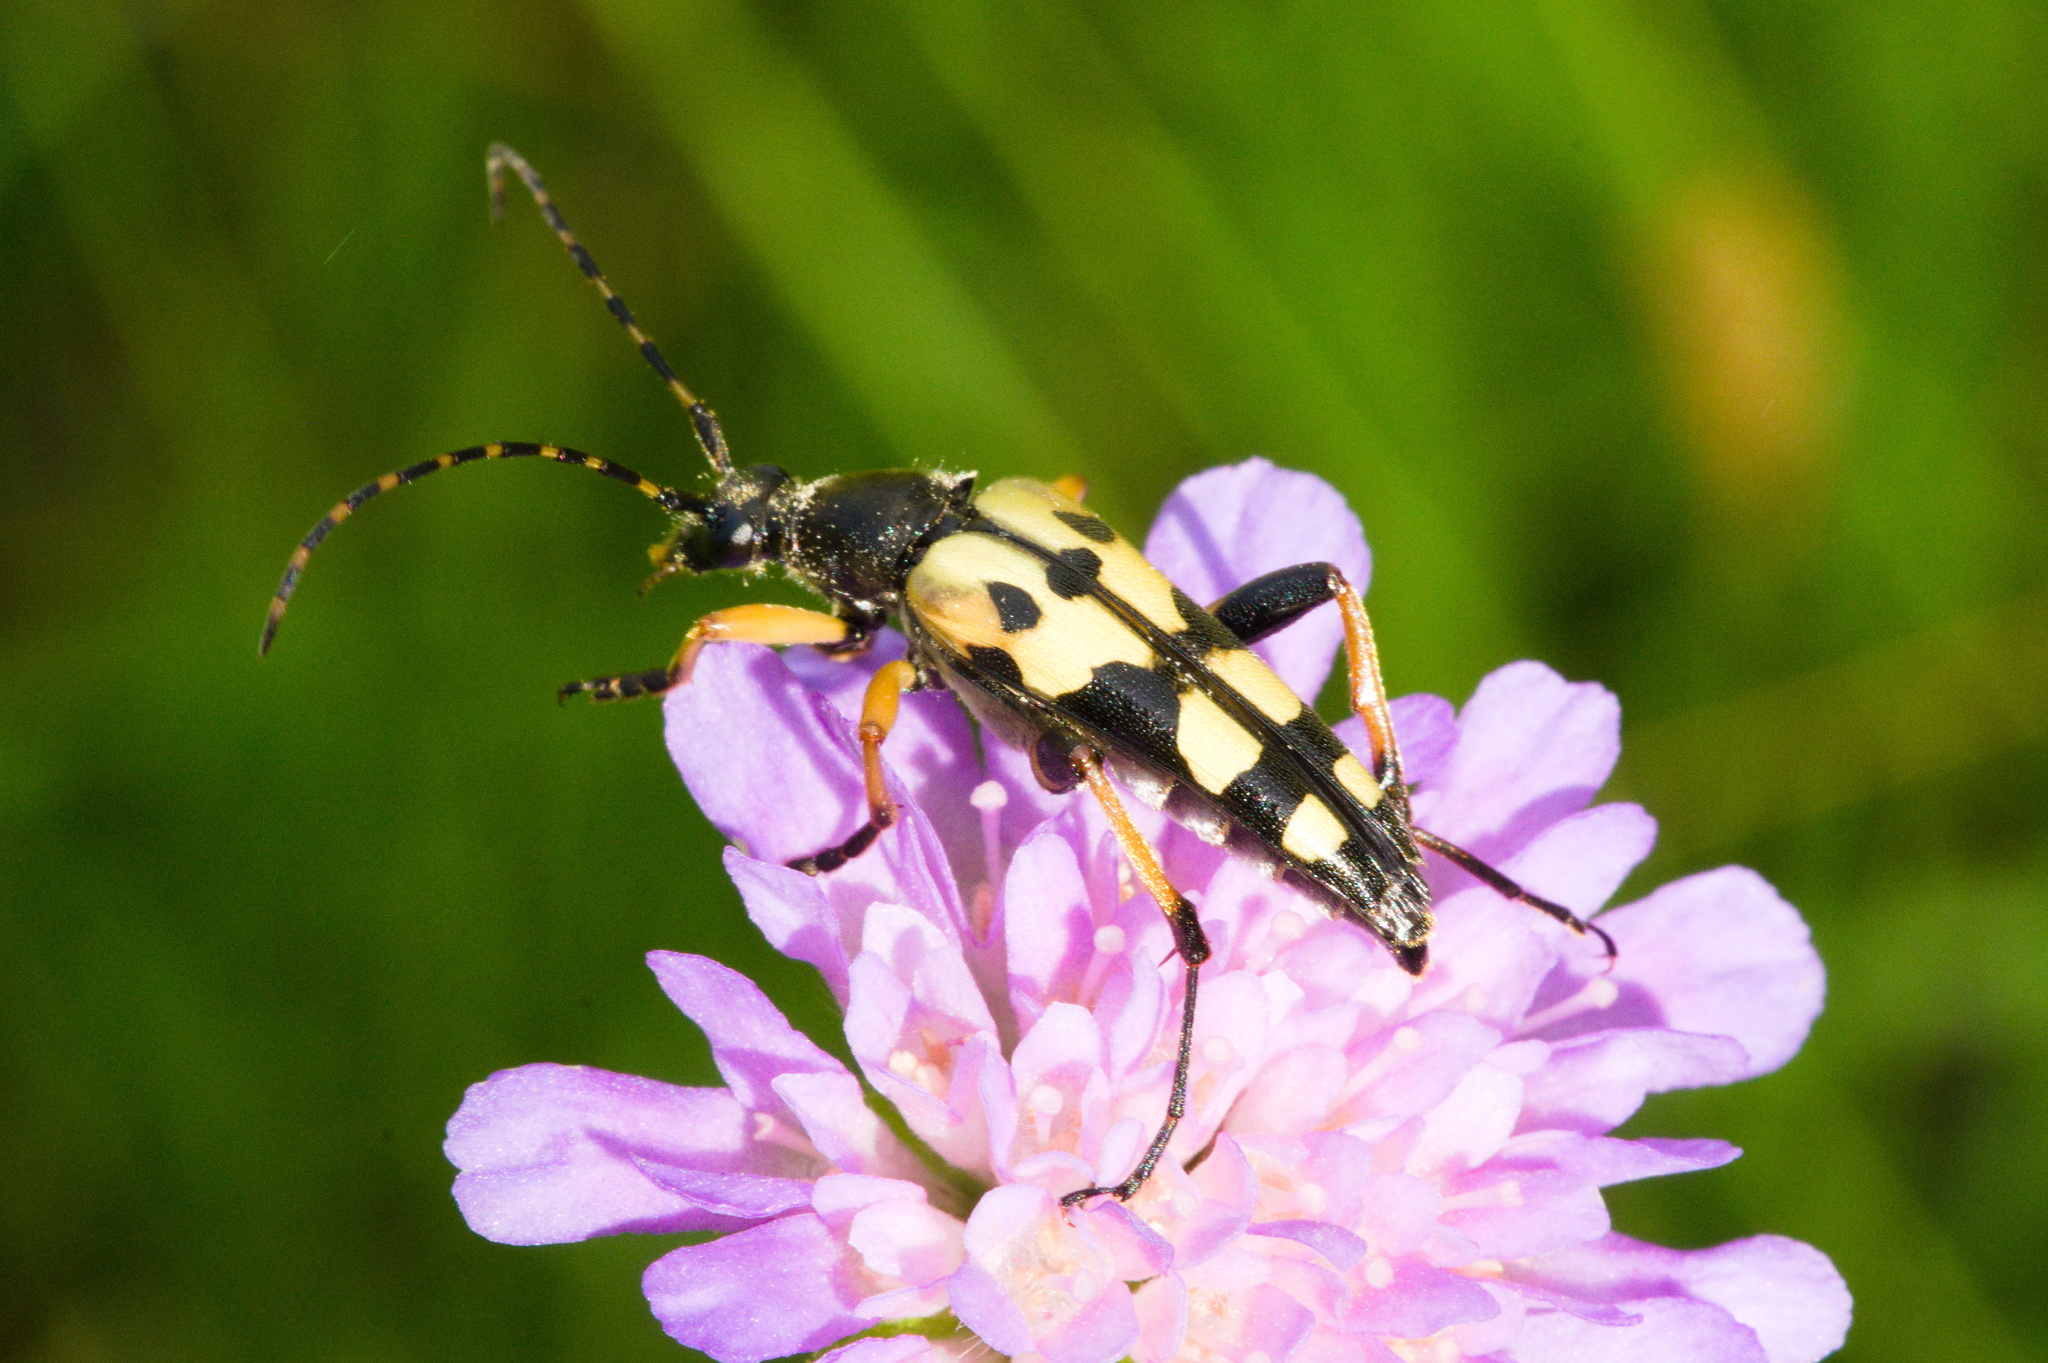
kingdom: Animalia
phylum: Arthropoda
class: Insecta
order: Coleoptera
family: Cerambycidae
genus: Rutpela
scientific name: Rutpela maculata
